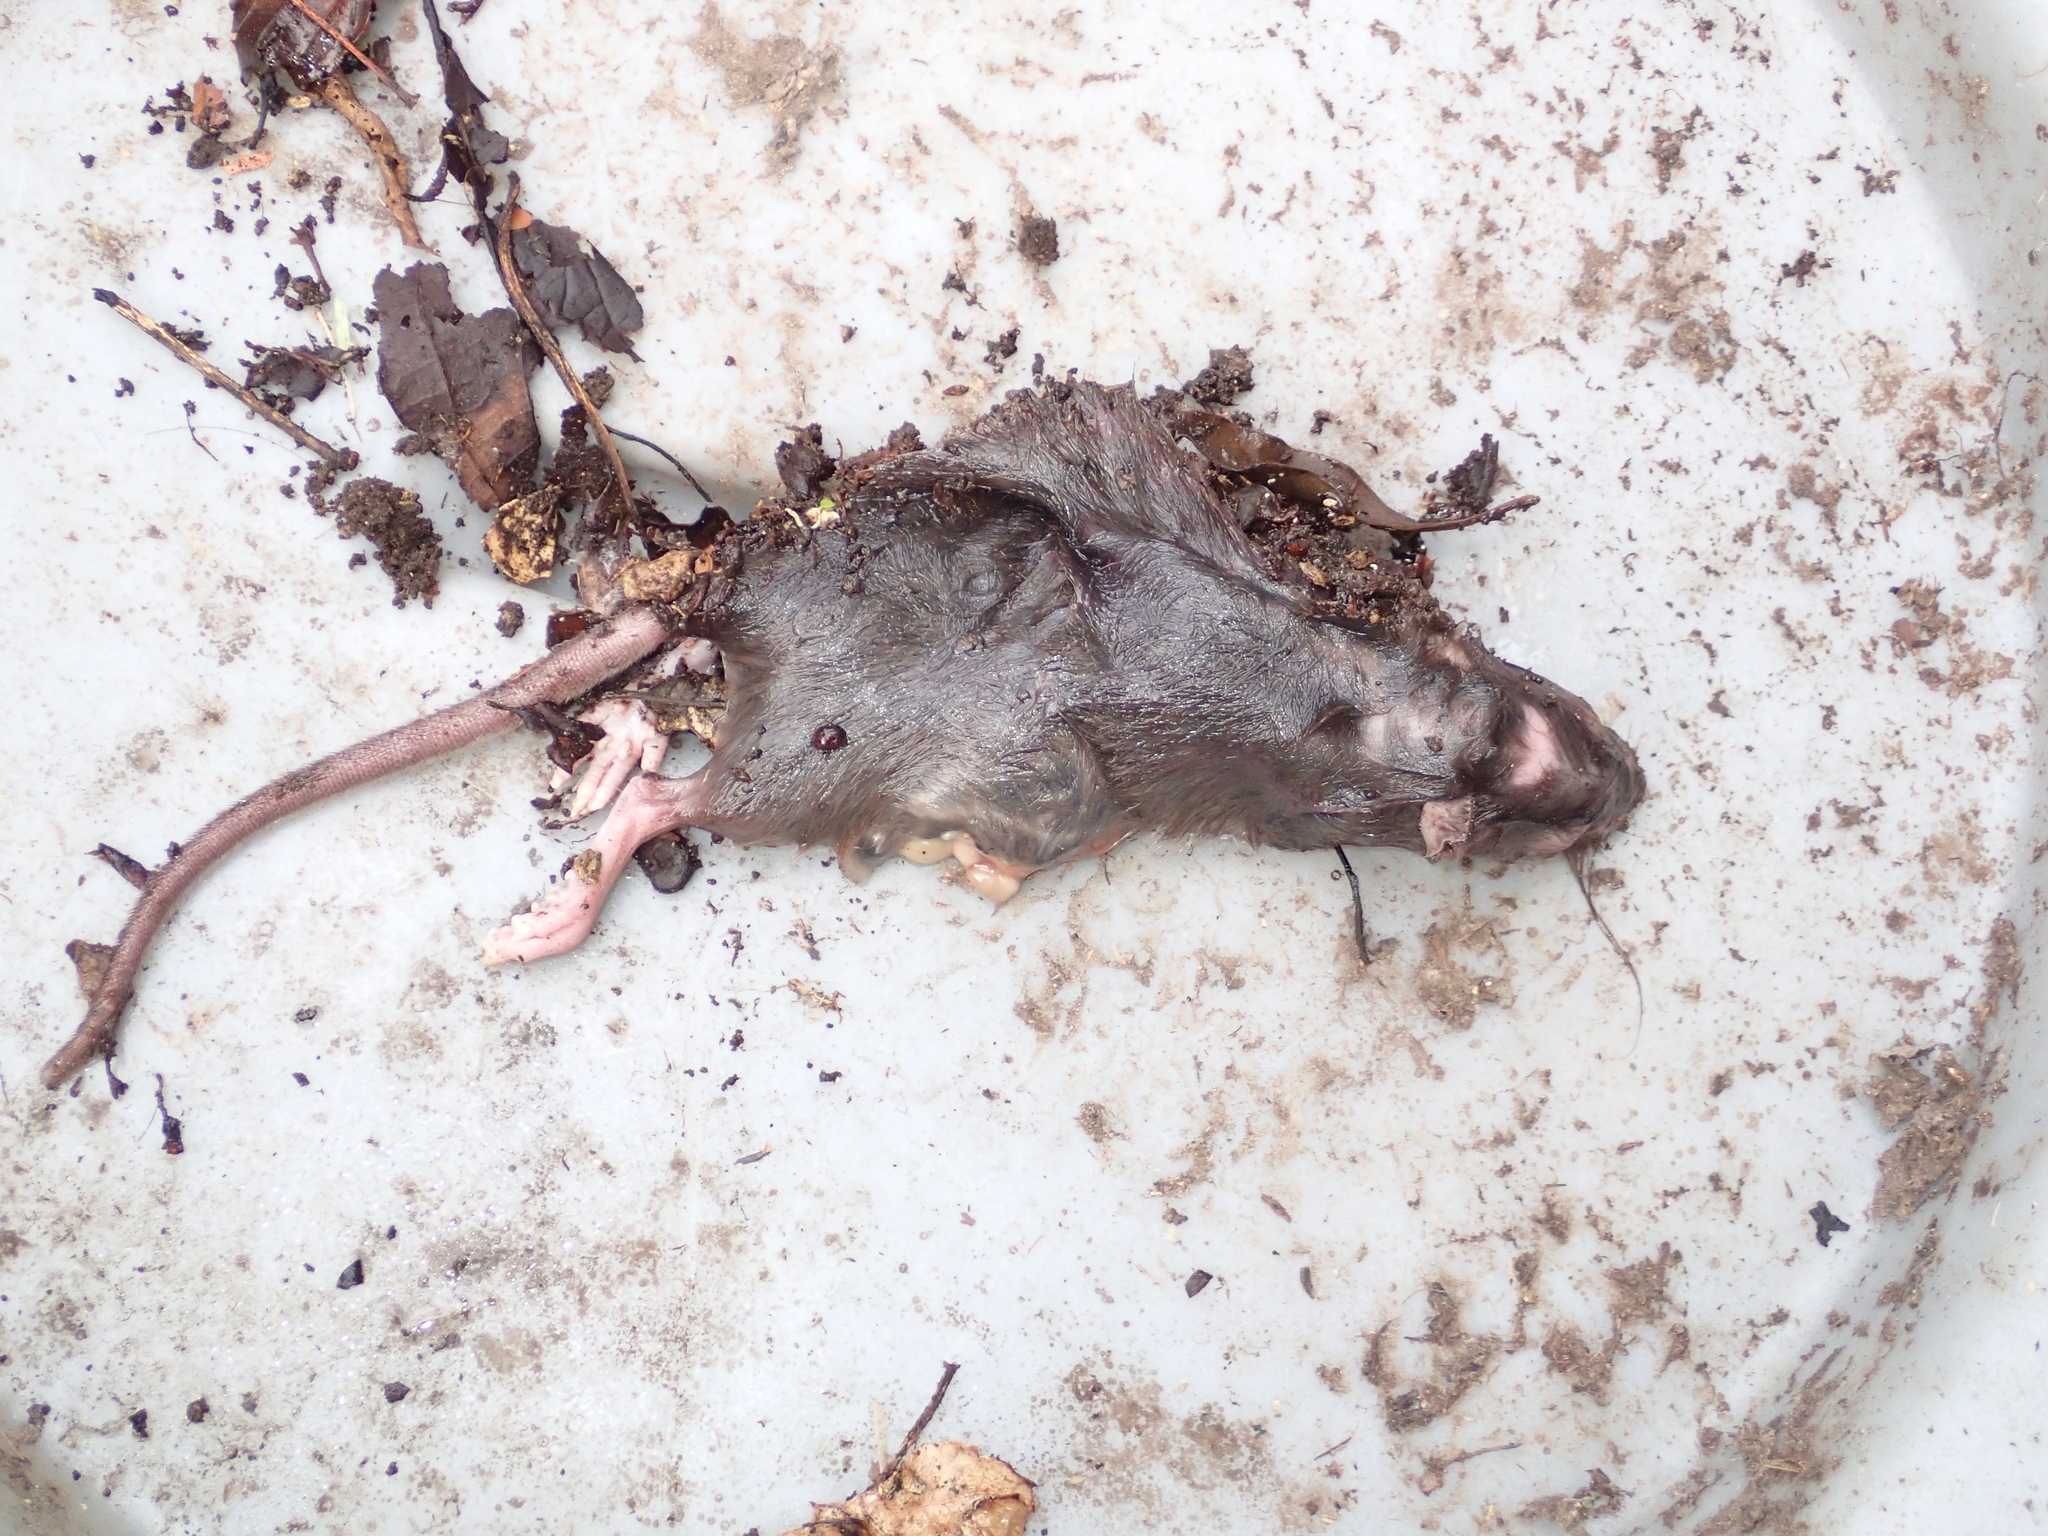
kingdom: Animalia
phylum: Chordata
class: Mammalia
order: Rodentia
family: Muridae
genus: Rattus
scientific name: Rattus norvegicus
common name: Brown rat
